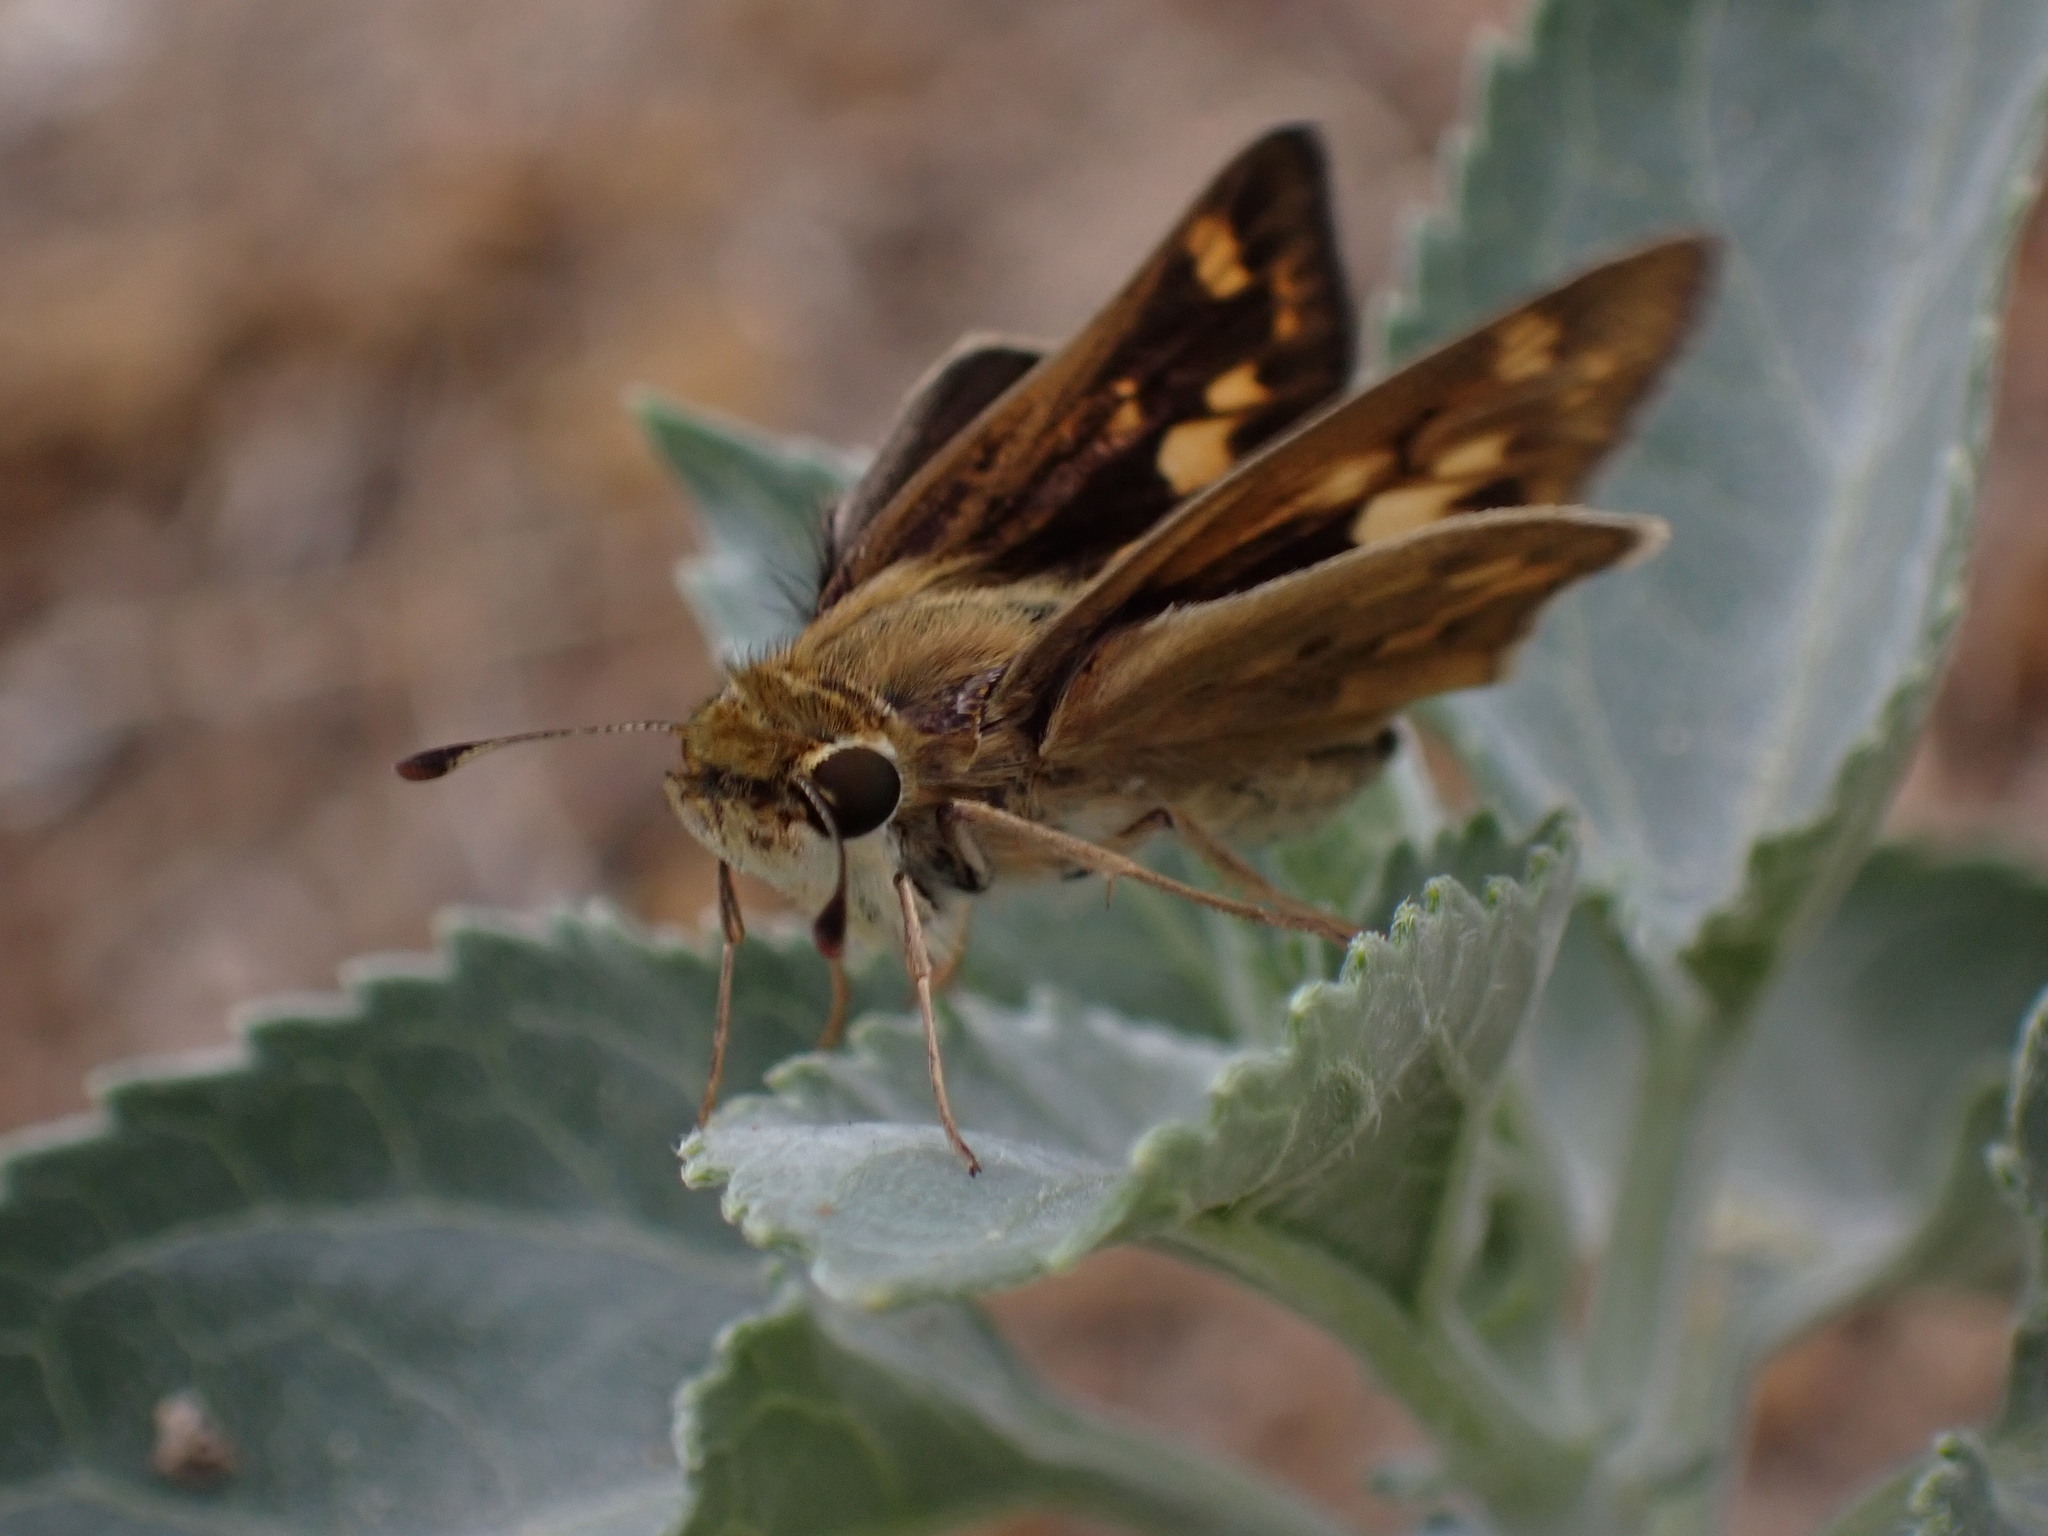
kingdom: Animalia
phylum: Arthropoda
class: Insecta
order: Lepidoptera
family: Hesperiidae
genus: Hylephila
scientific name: Hylephila phyleus
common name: Fiery skipper
